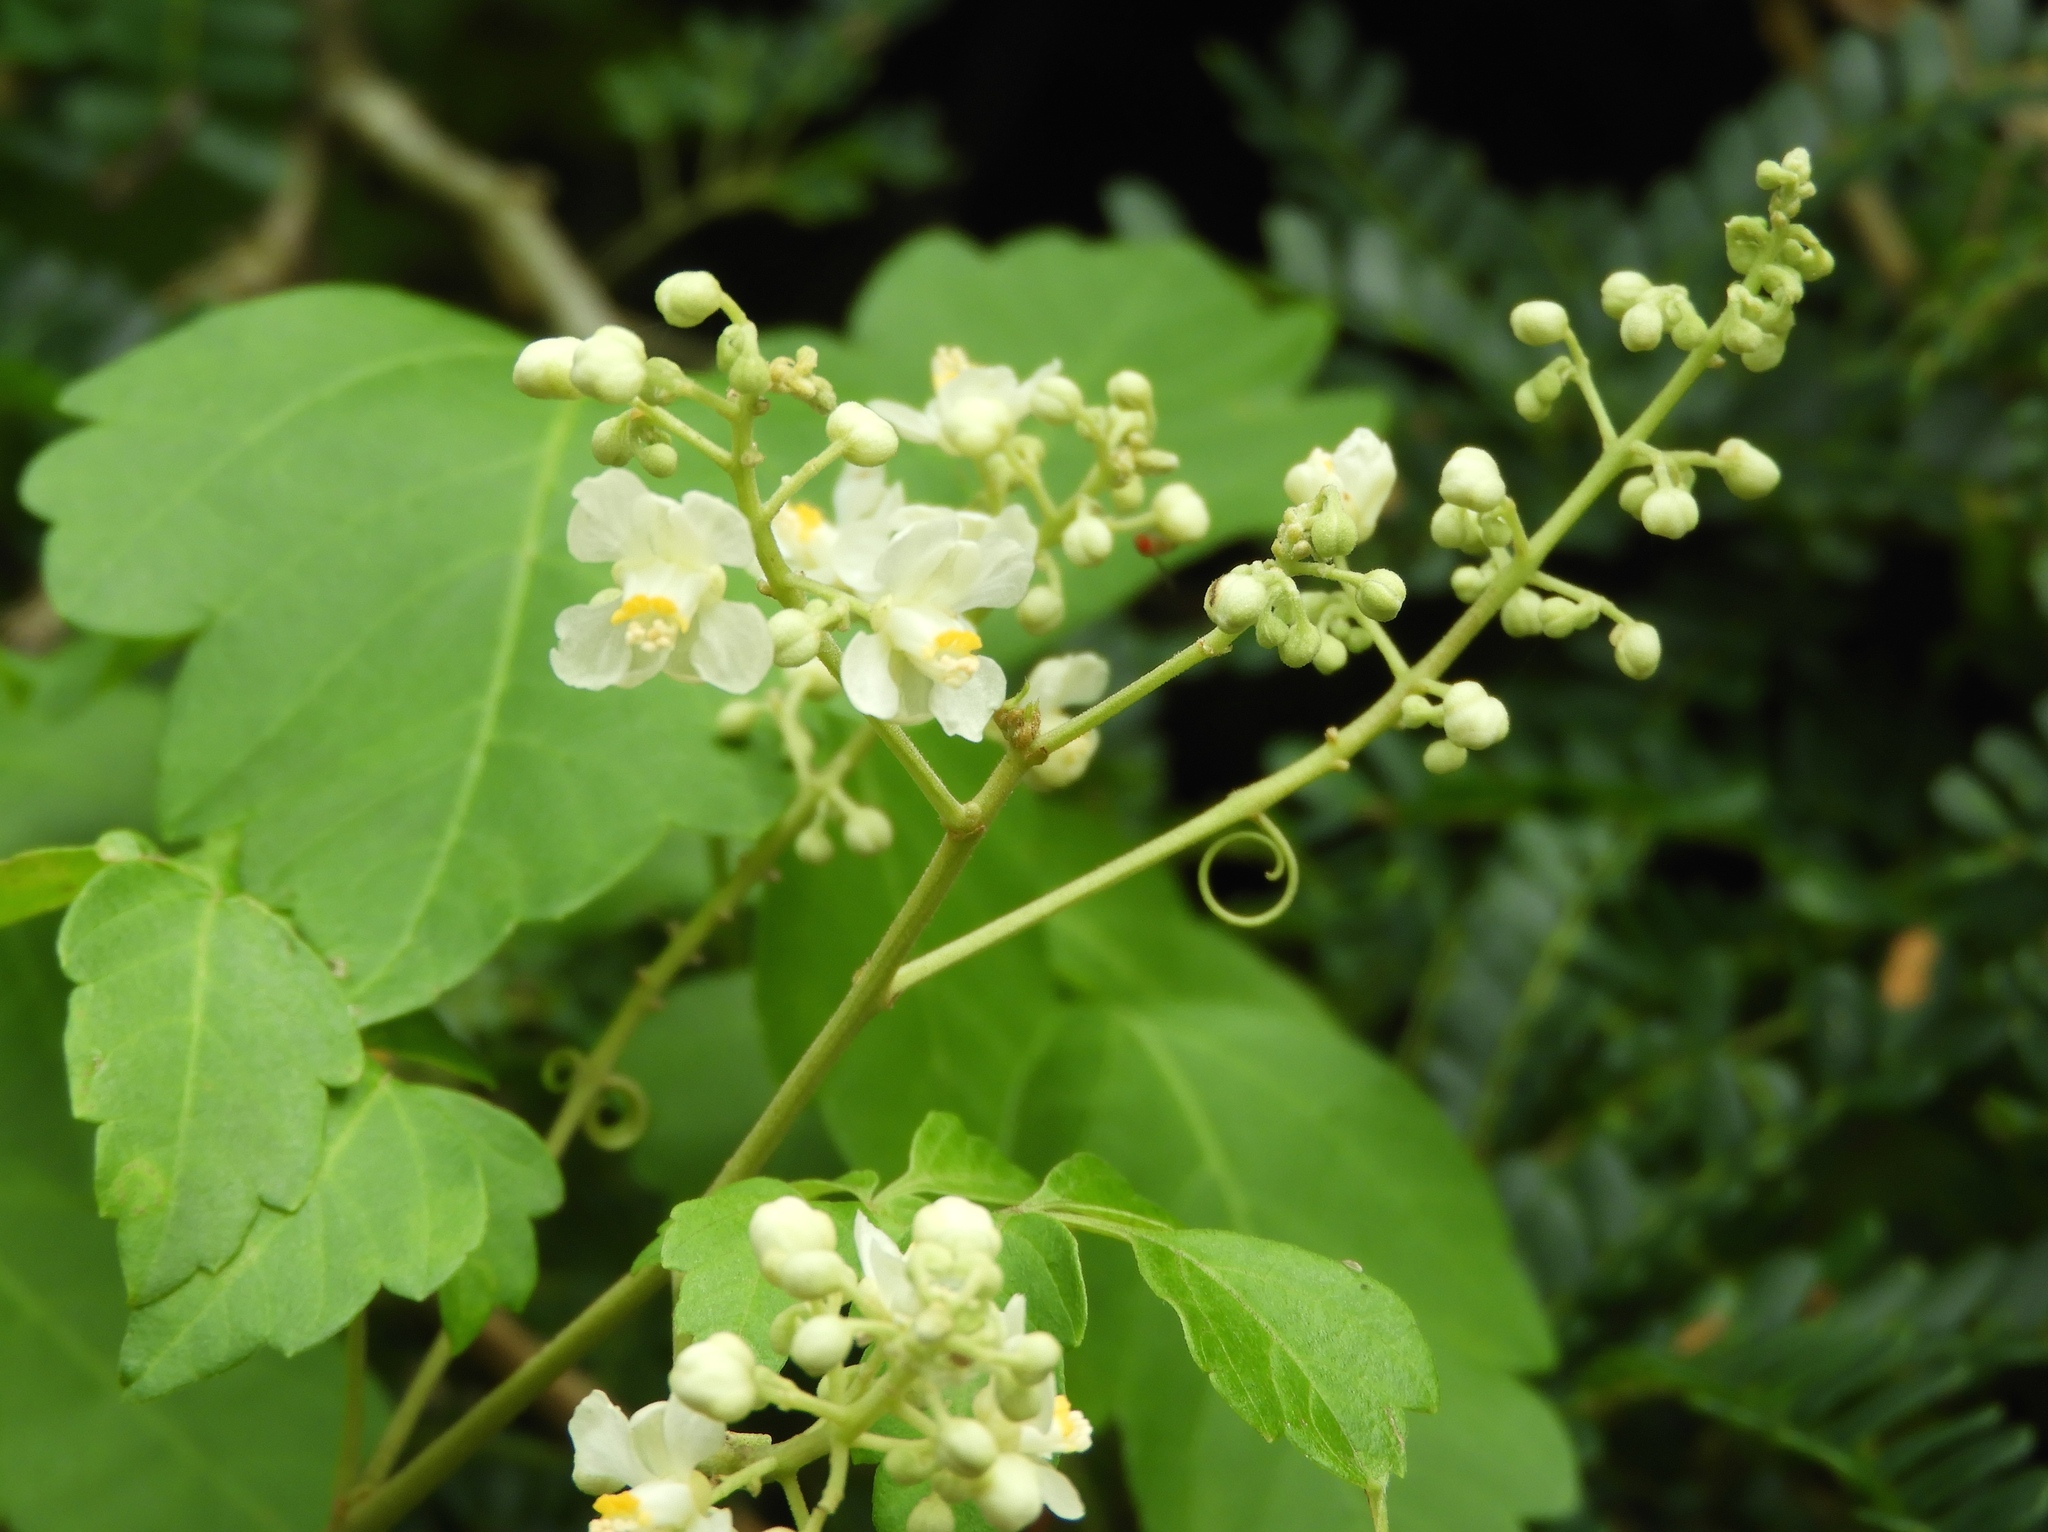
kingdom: Plantae
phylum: Tracheophyta
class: Magnoliopsida
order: Sapindales
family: Sapindaceae
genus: Cardiospermum
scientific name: Cardiospermum halicacabum
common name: Balloon vine
